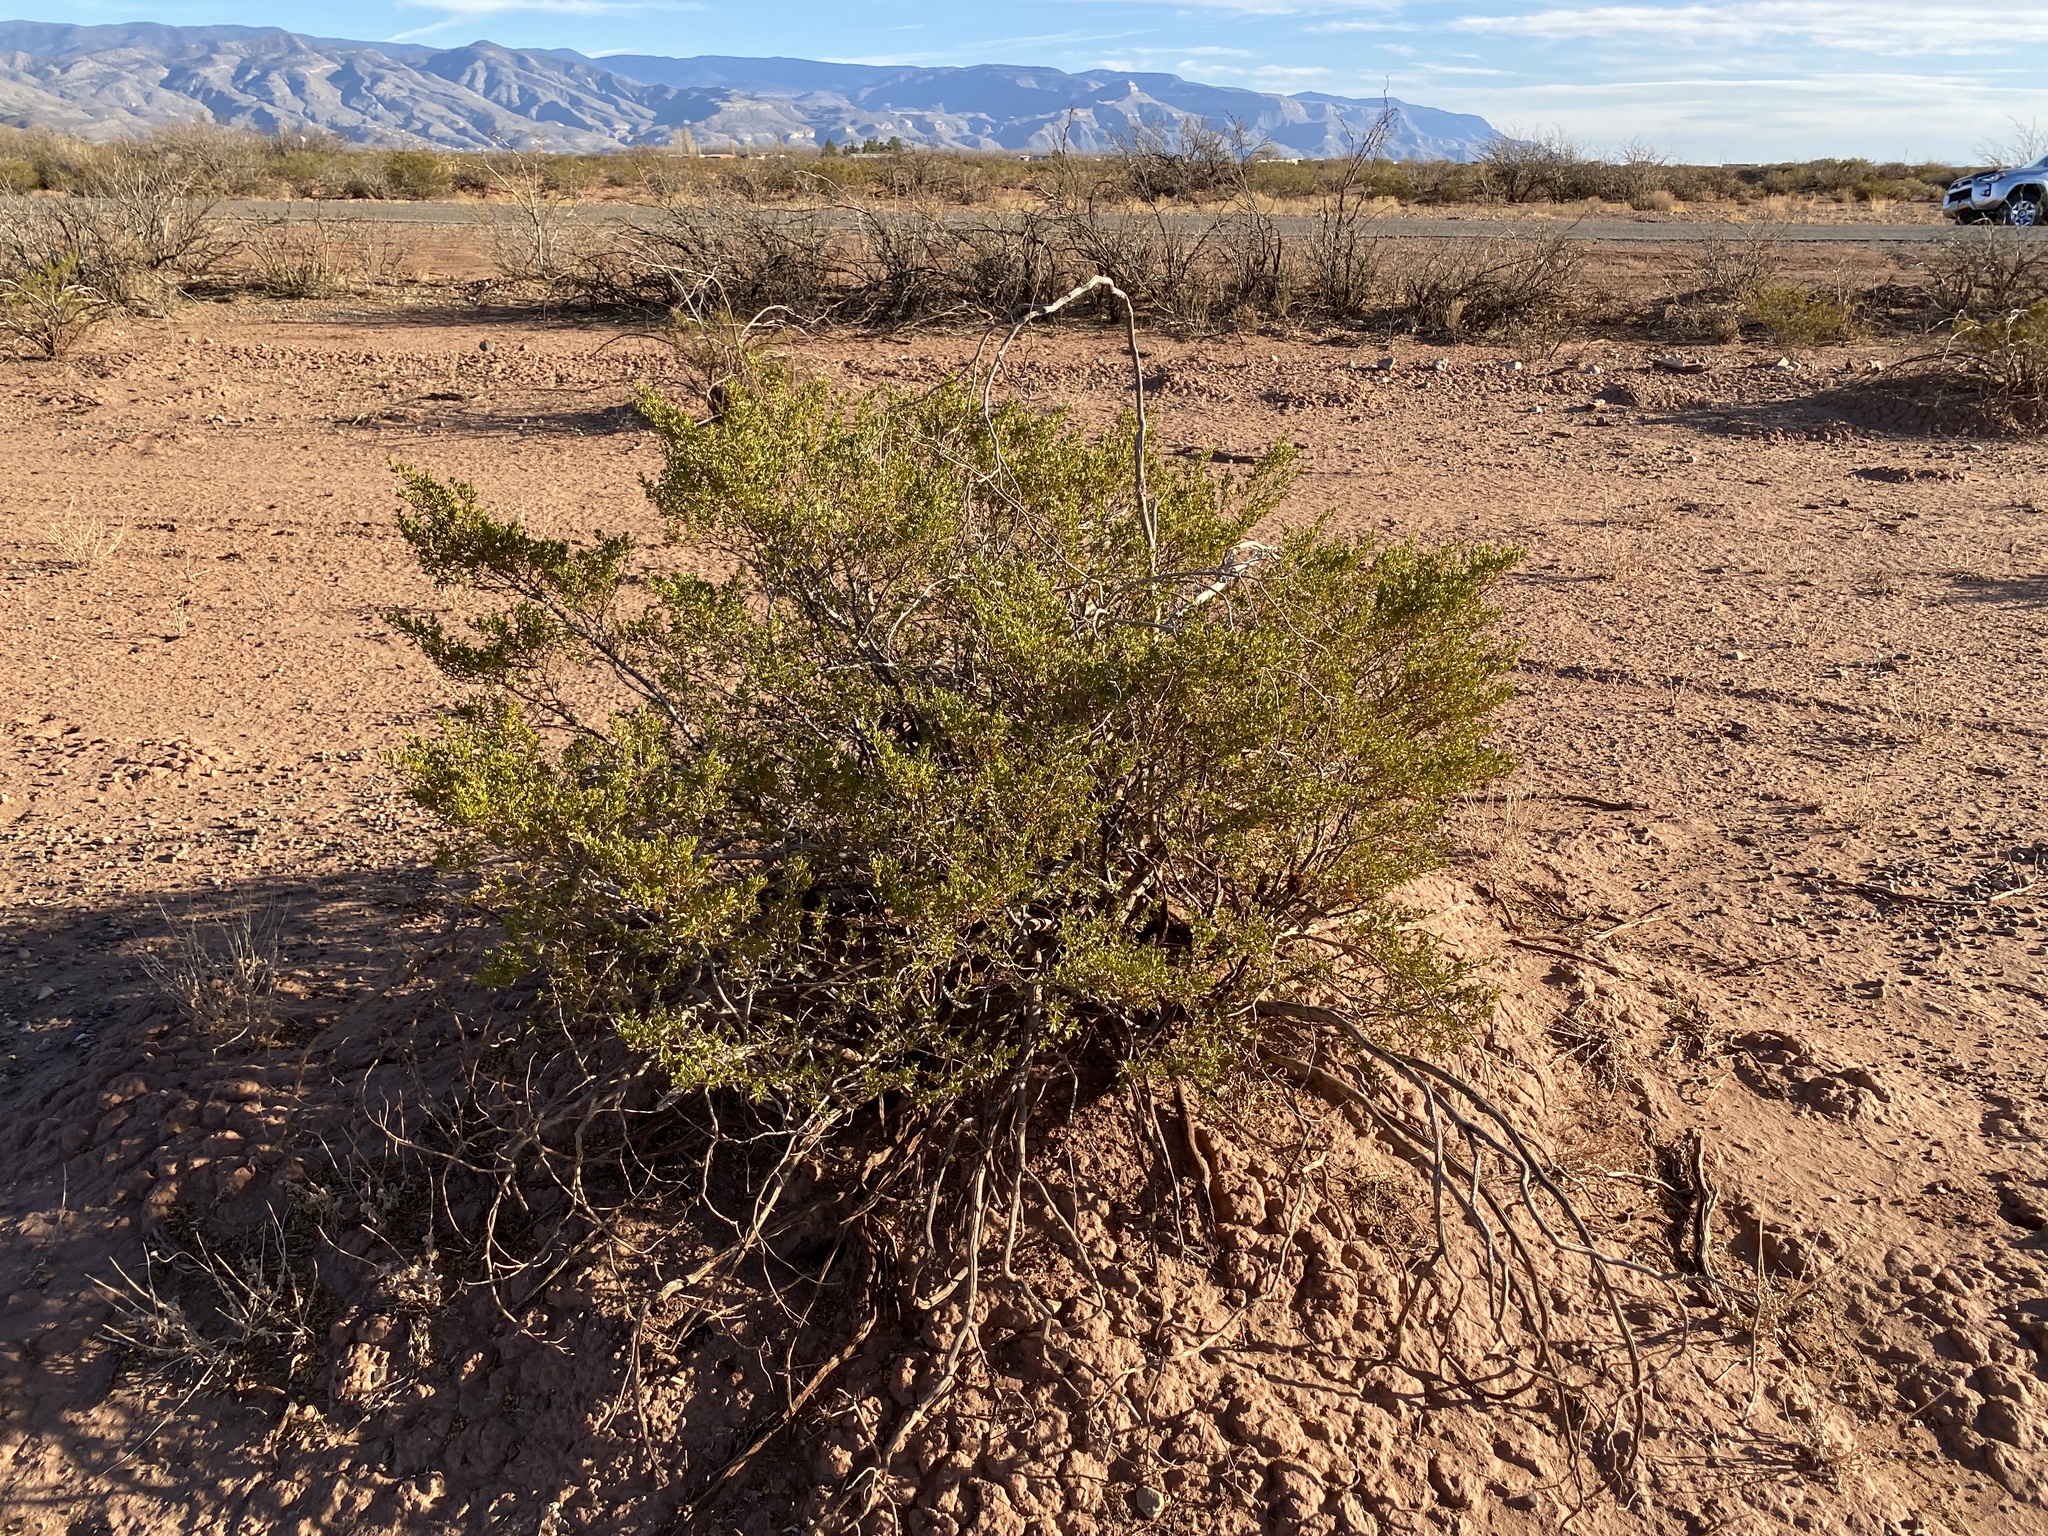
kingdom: Plantae
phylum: Tracheophyta
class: Magnoliopsida
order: Zygophyllales
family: Zygophyllaceae
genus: Larrea
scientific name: Larrea tridentata
